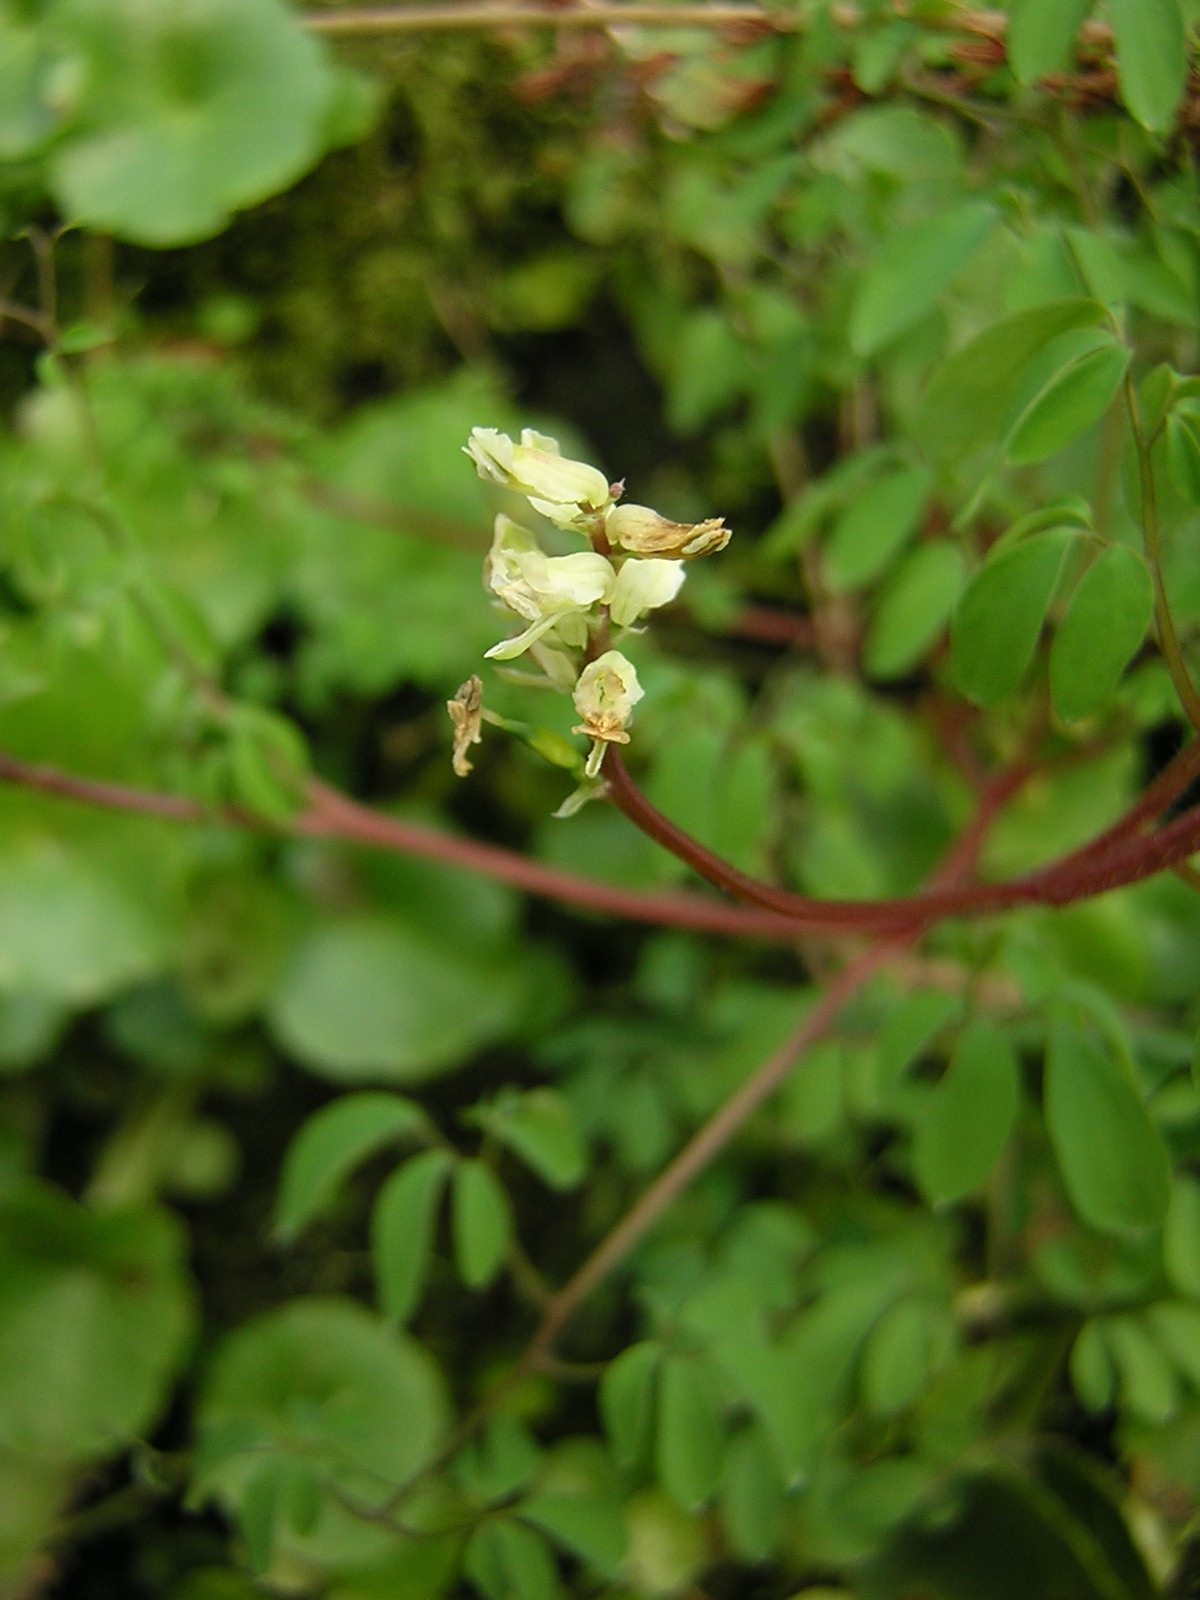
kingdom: Plantae
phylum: Tracheophyta
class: Magnoliopsida
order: Ranunculales
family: Papaveraceae
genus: Ceratocapnos
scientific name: Ceratocapnos claviculata
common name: Climbing corydalis
